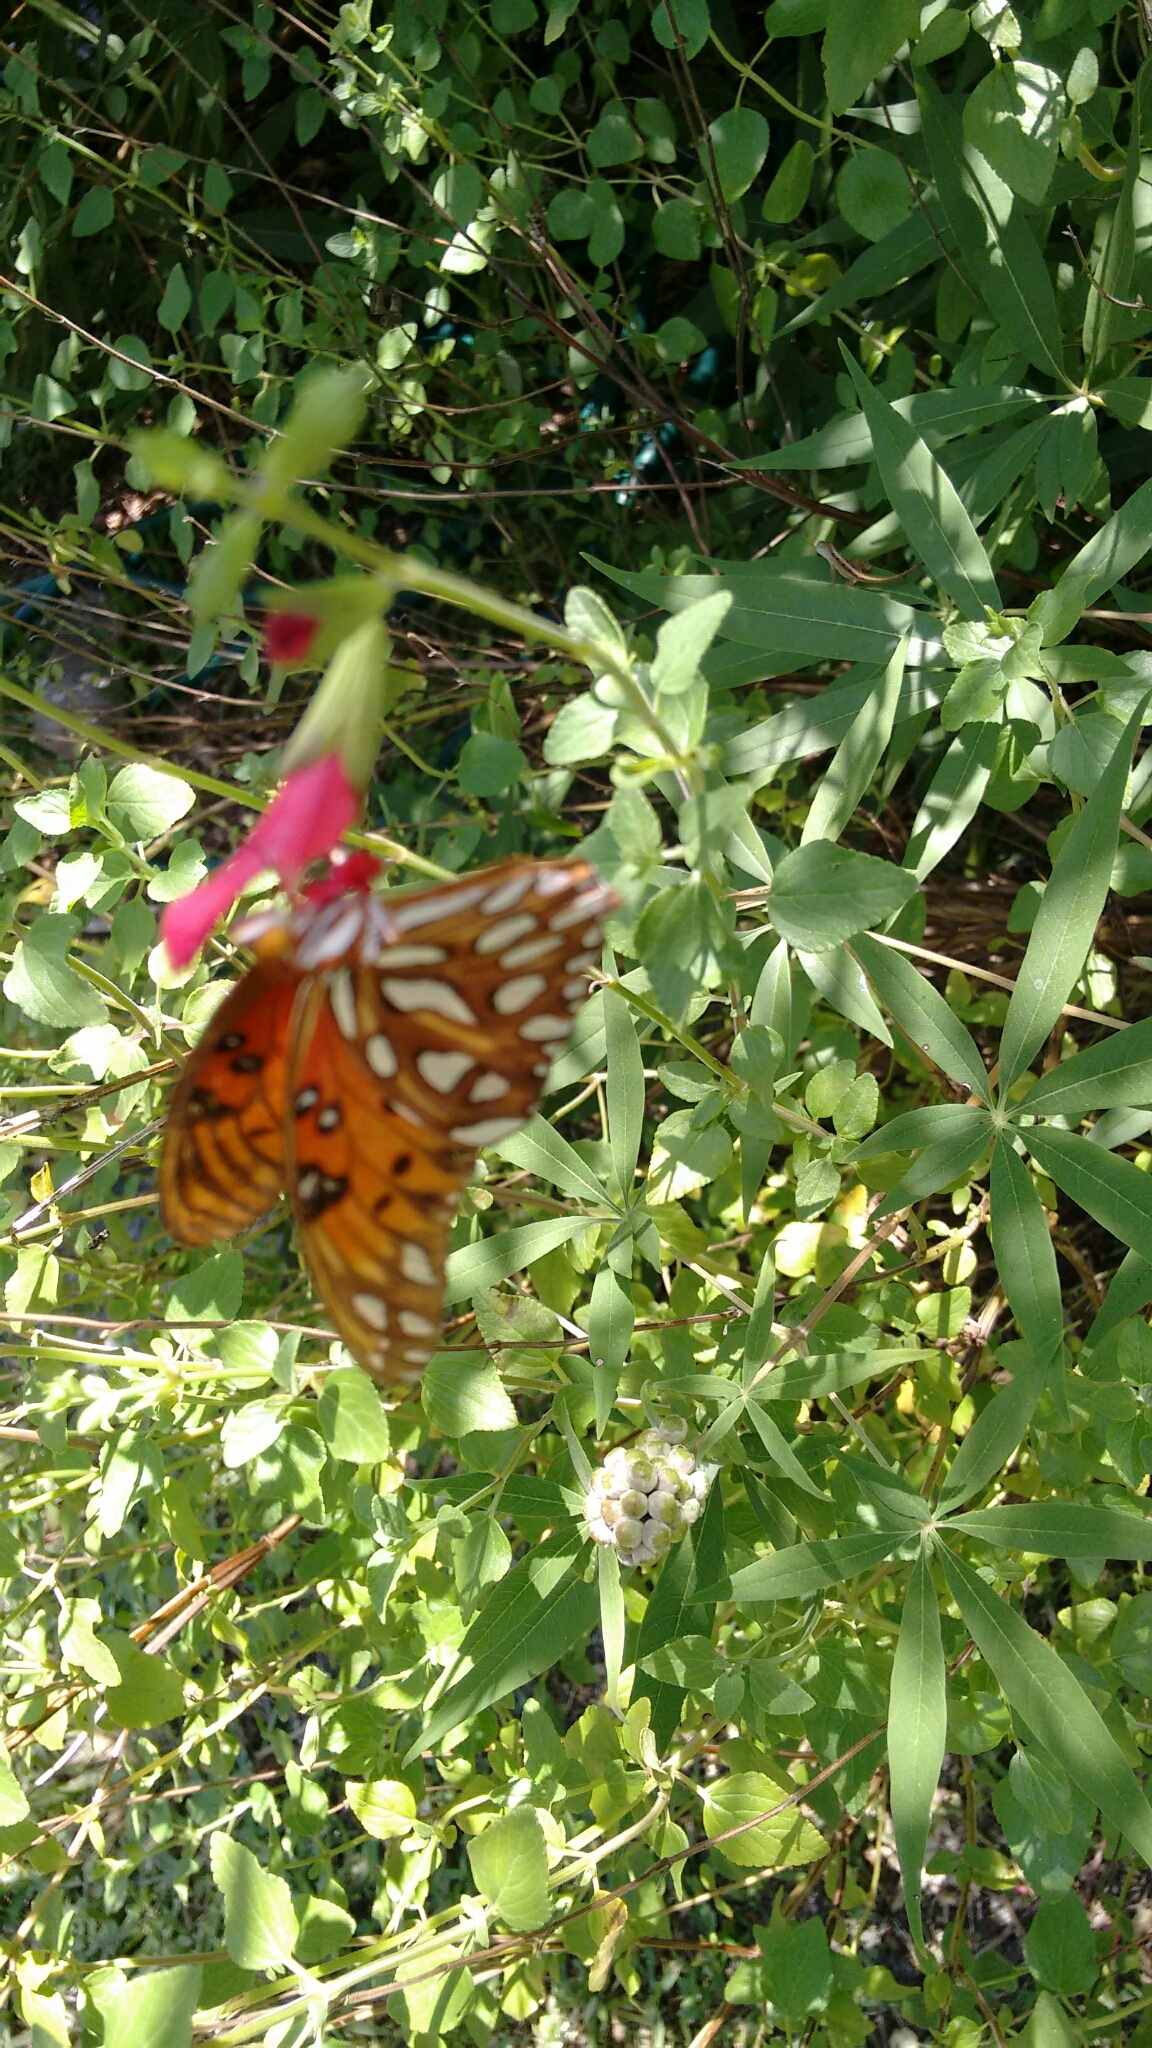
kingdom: Animalia
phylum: Arthropoda
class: Insecta
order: Lepidoptera
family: Nymphalidae
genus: Dione
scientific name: Dione vanillae
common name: Gulf fritillary
